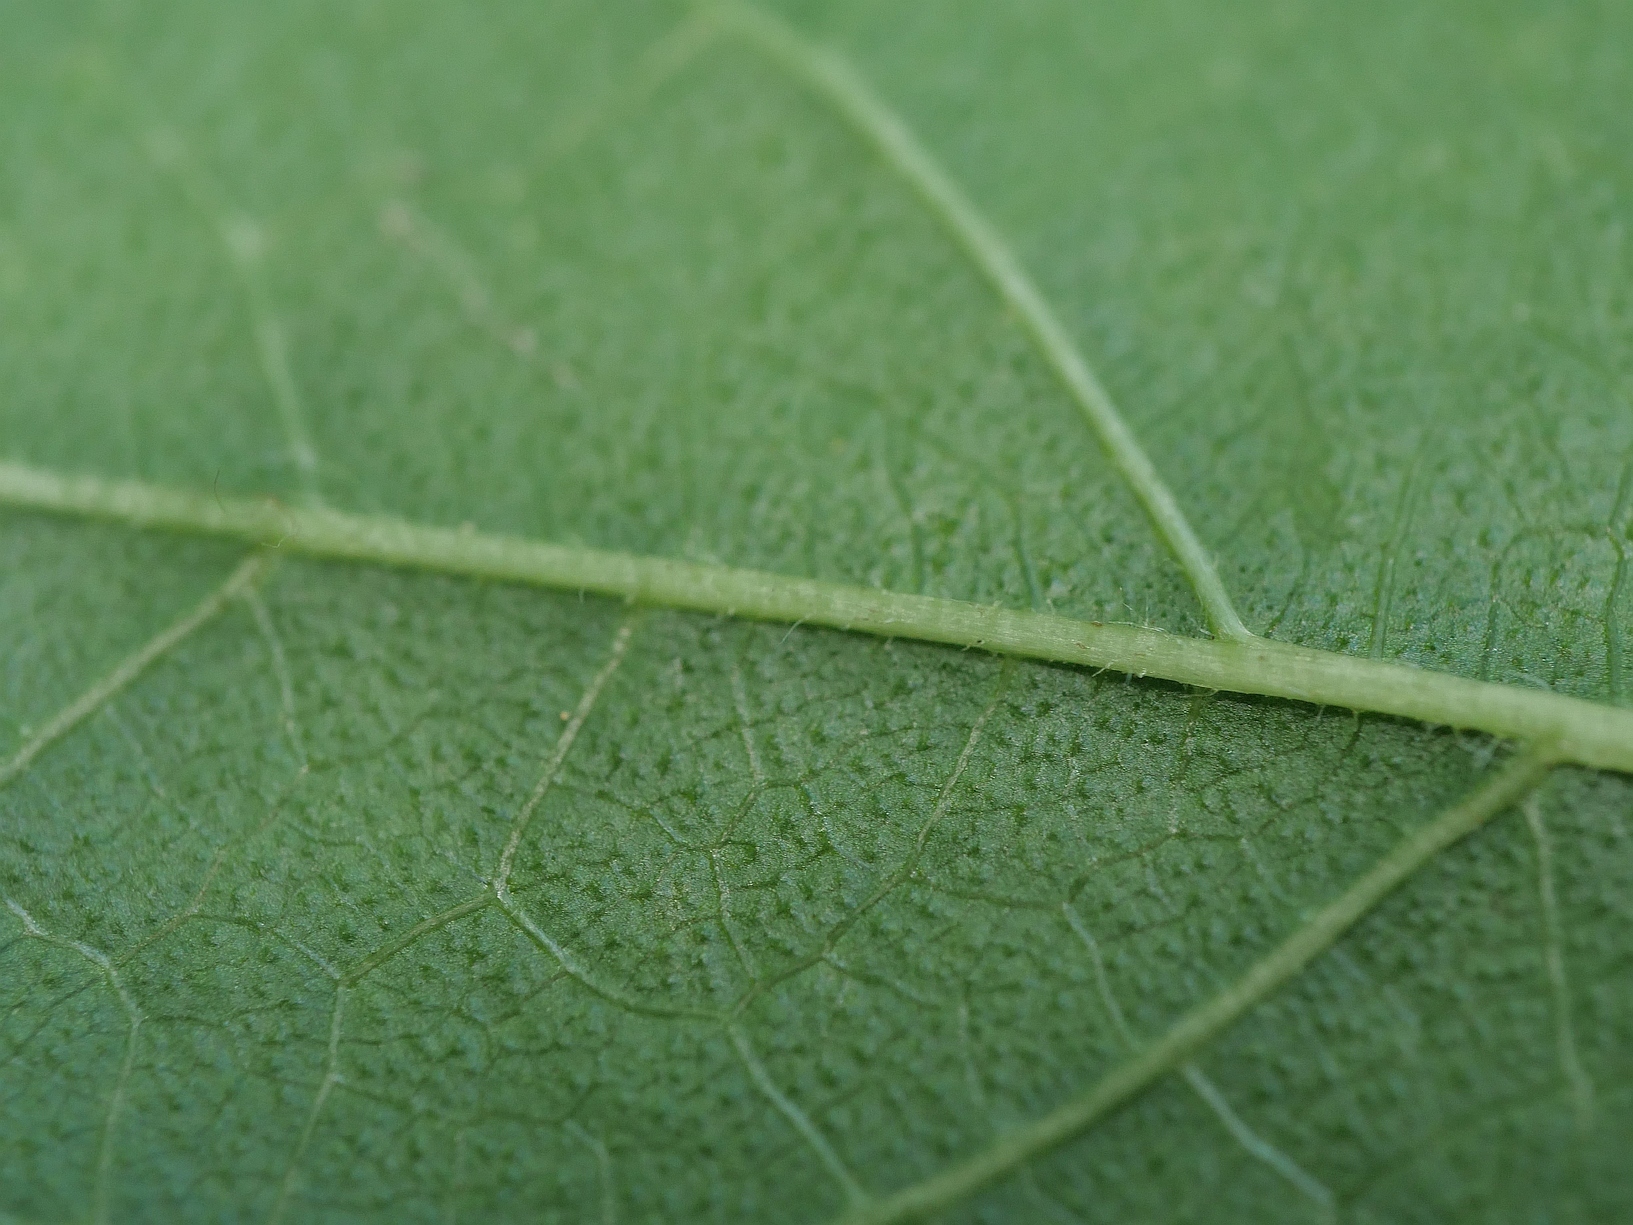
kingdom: Plantae
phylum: Tracheophyta
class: Magnoliopsida
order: Rosales
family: Moraceae
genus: Morus
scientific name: Morus alba
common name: White mulberry
